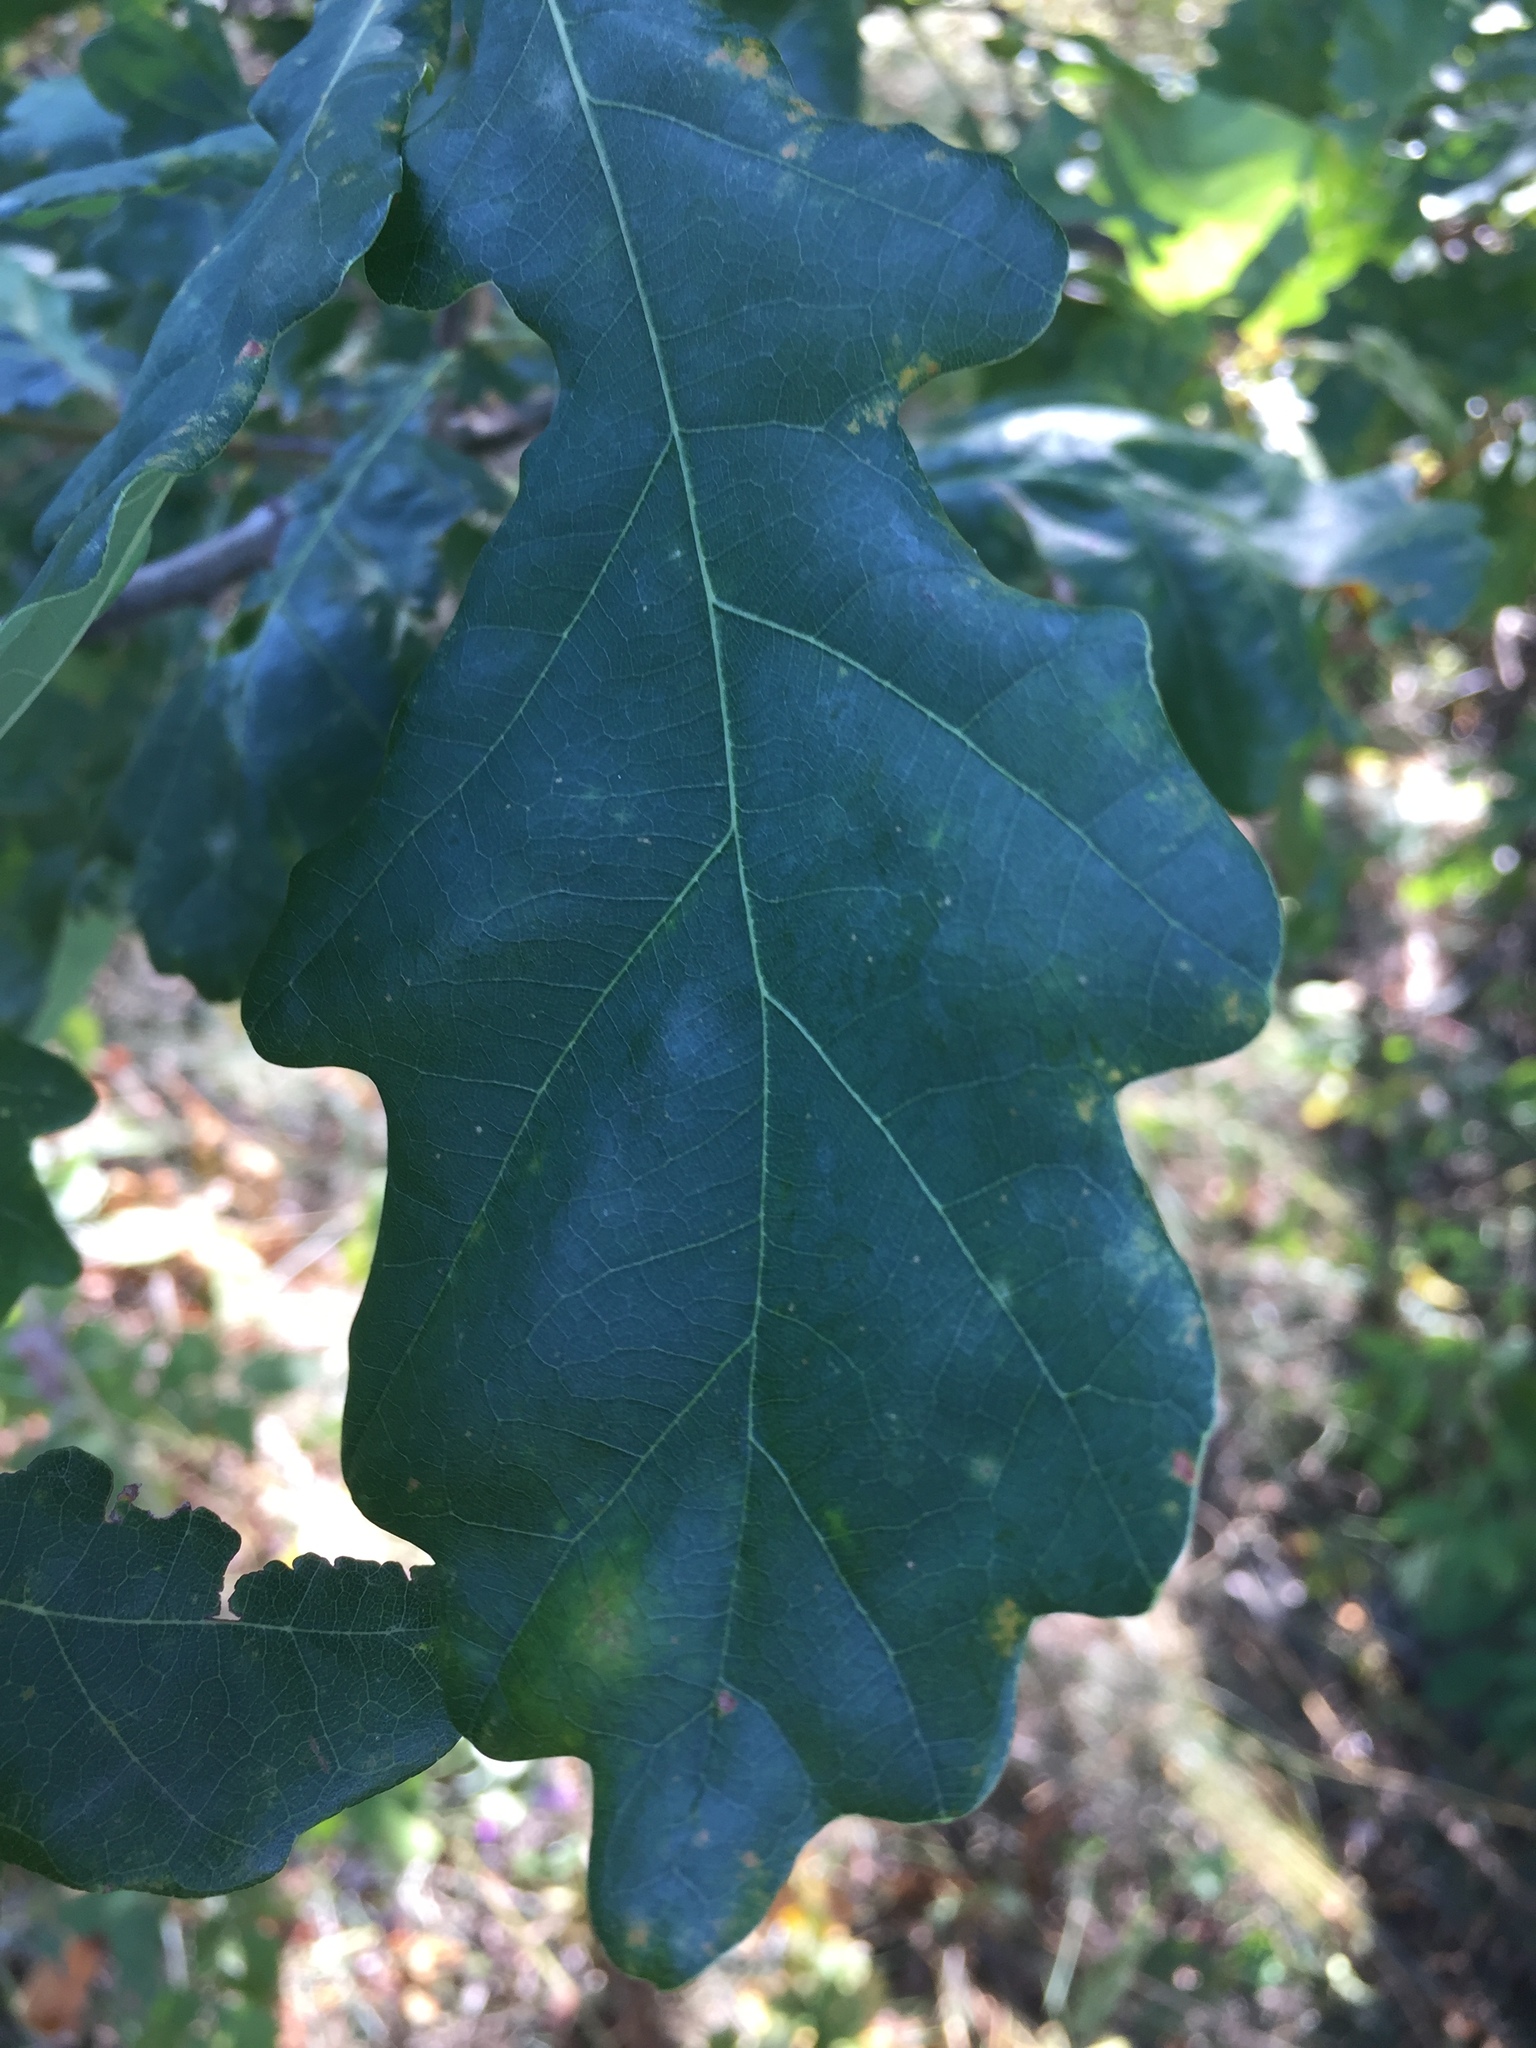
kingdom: Plantae
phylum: Tracheophyta
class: Magnoliopsida
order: Fagales
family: Fagaceae
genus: Quercus
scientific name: Quercus robur
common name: Pedunculate oak
